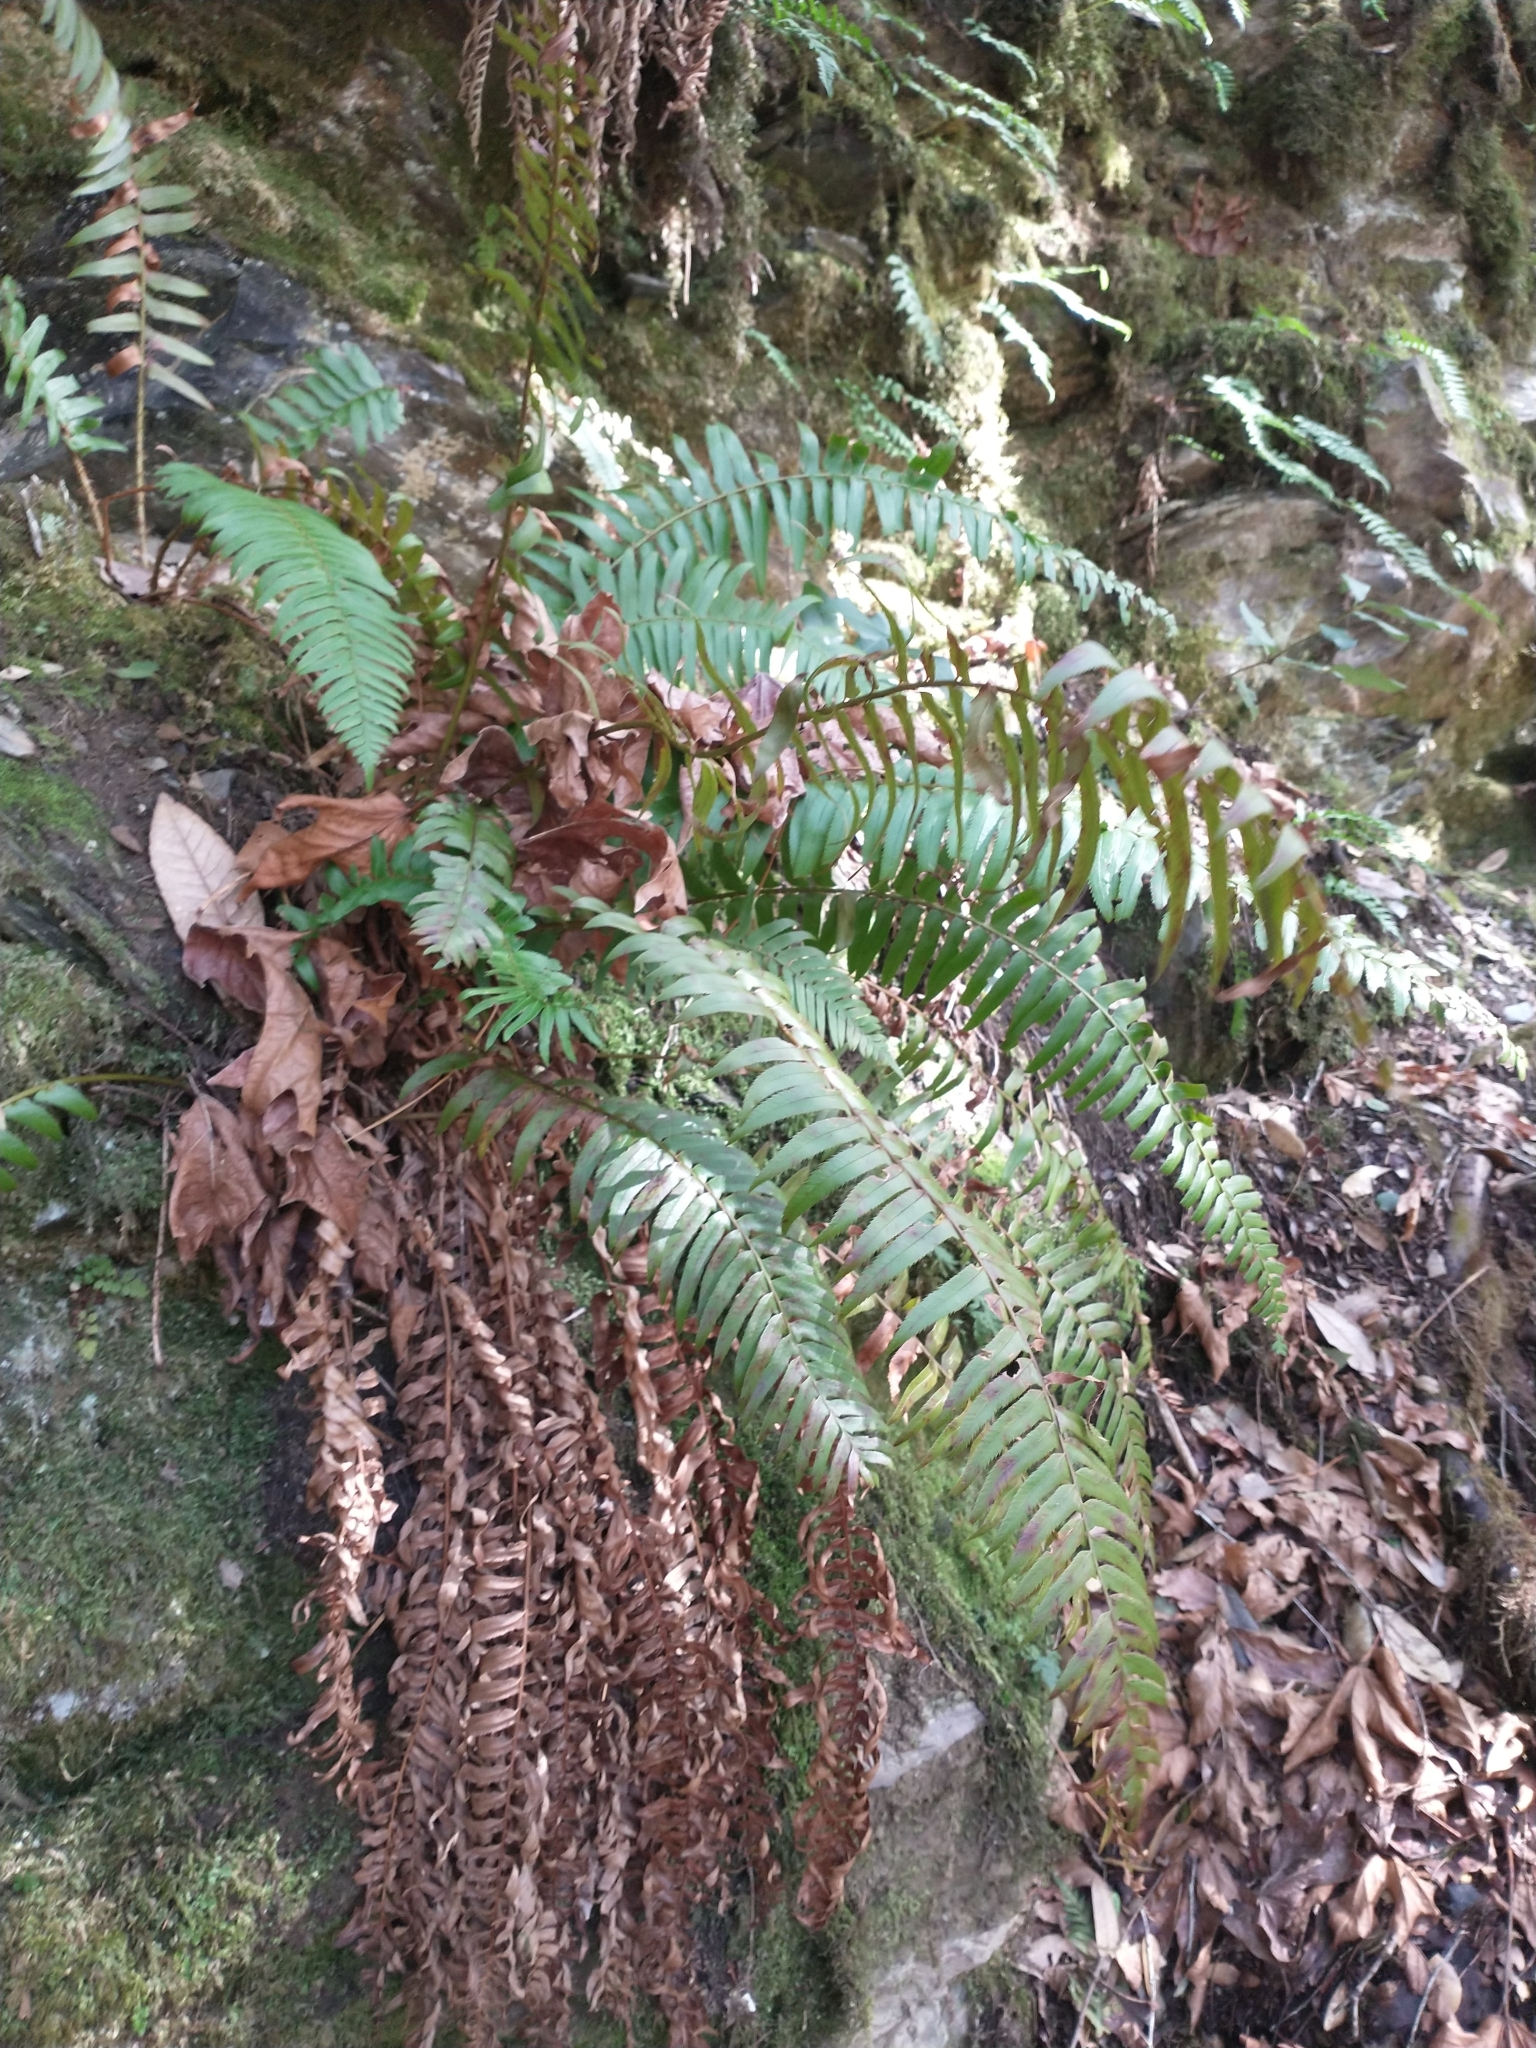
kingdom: Plantae
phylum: Tracheophyta
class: Polypodiopsida
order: Polypodiales
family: Dryopteridaceae
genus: Polystichum
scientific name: Polystichum munitum
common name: Western sword-fern
